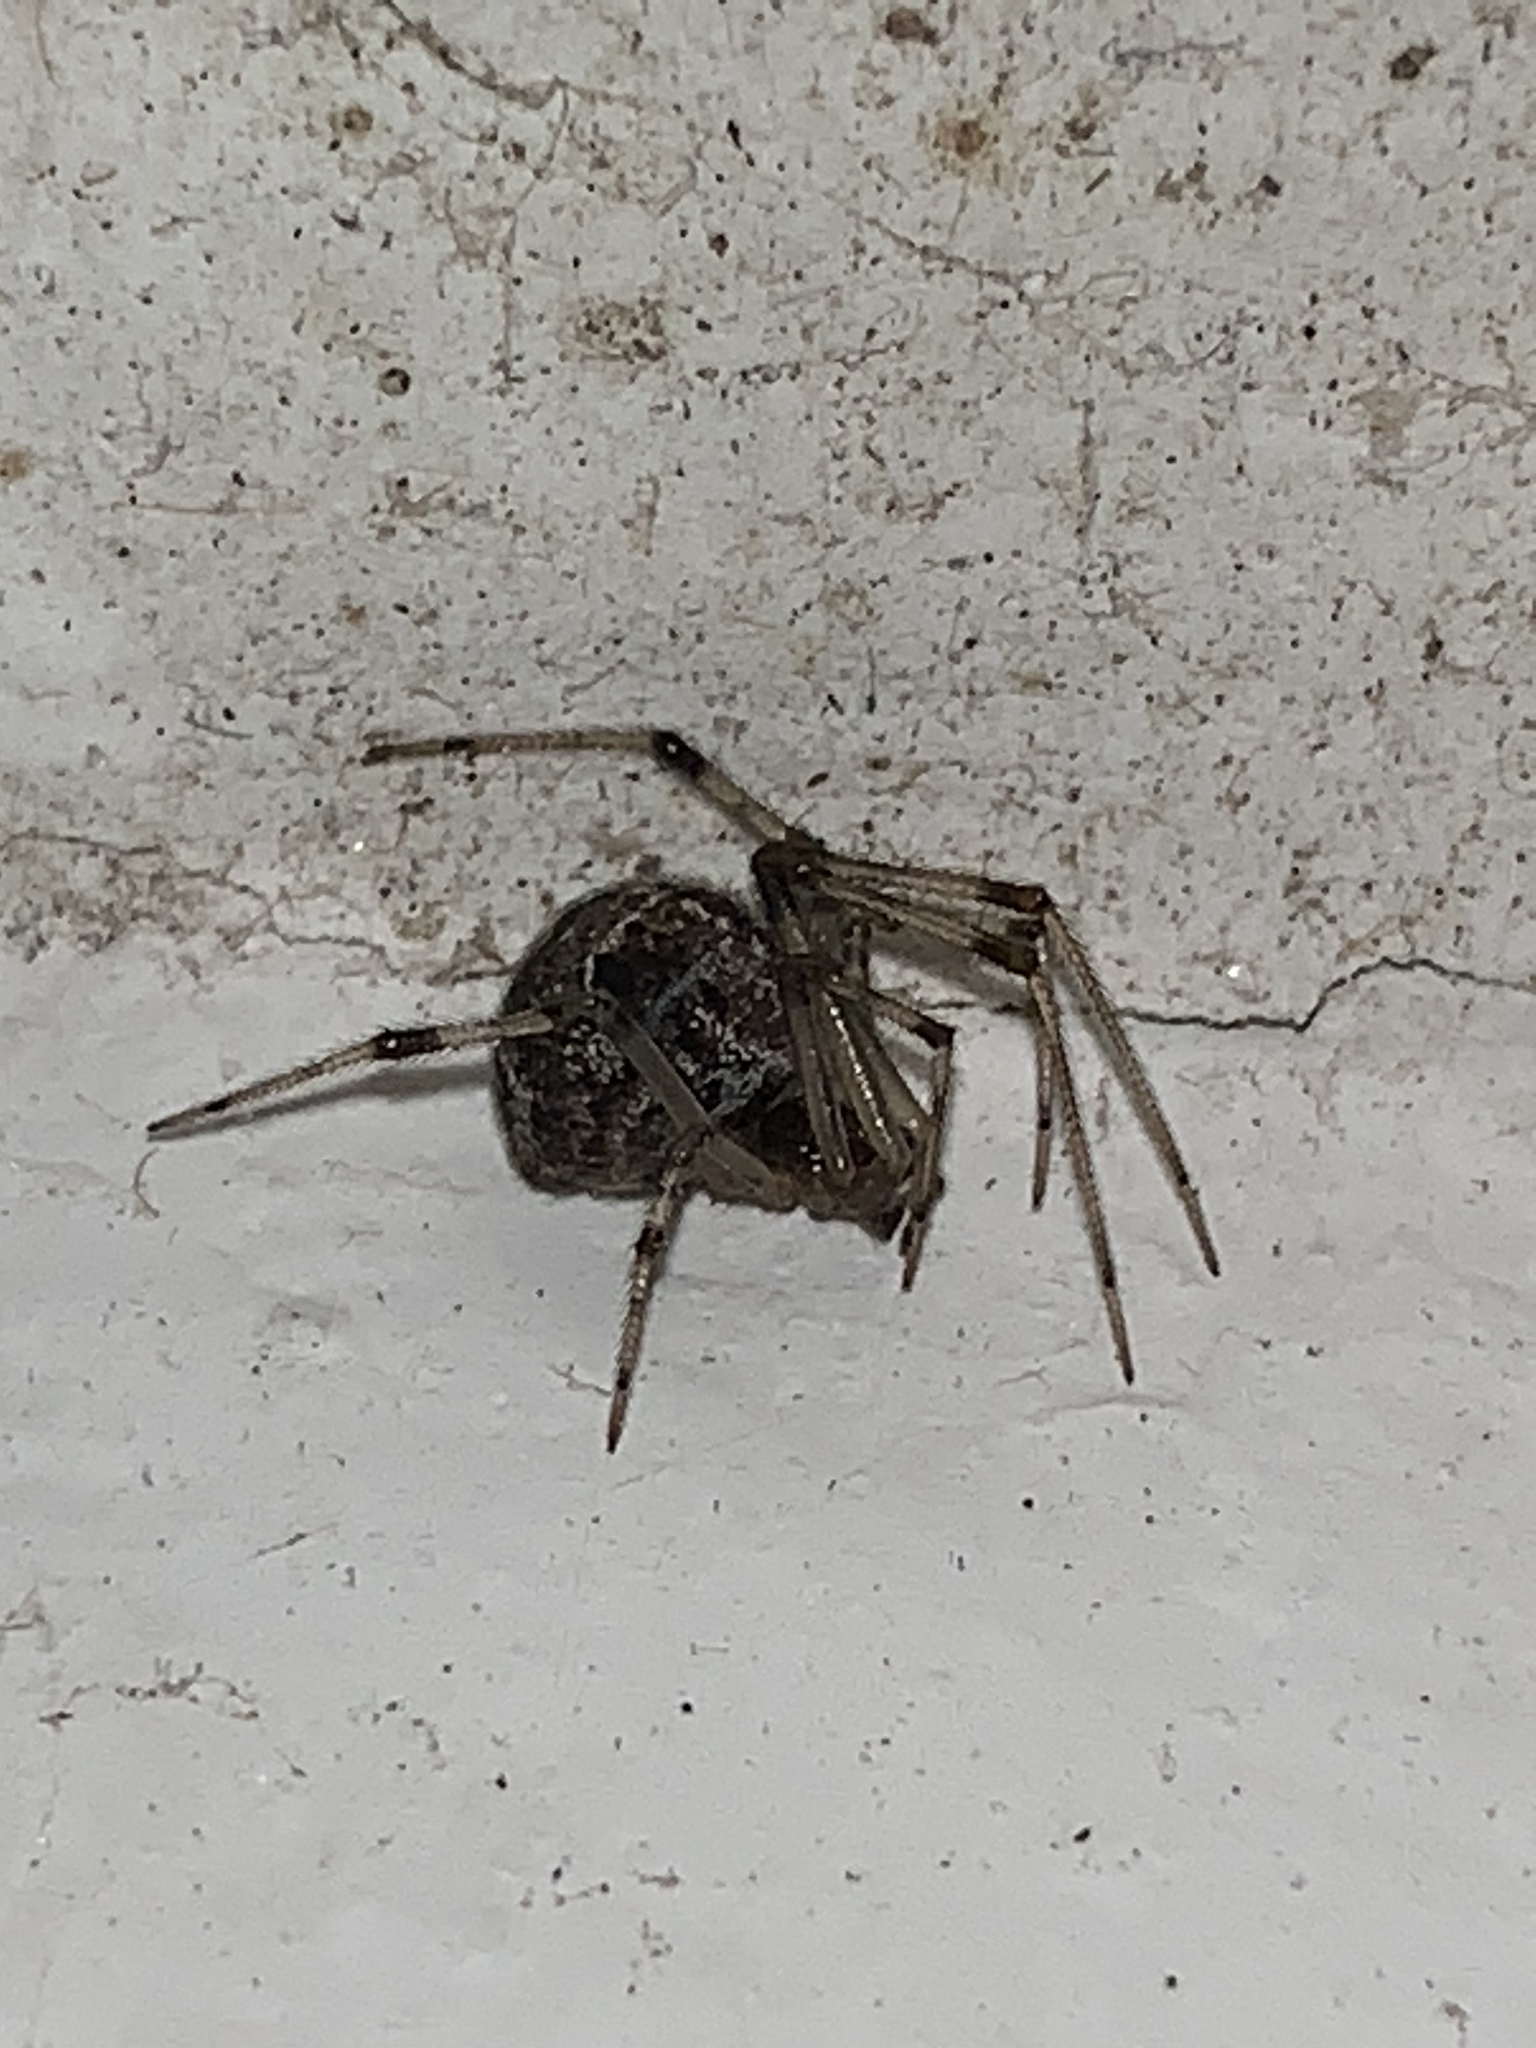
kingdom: Animalia
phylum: Arthropoda
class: Arachnida
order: Araneae
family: Theridiidae
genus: Parasteatoda
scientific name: Parasteatoda tepidariorum
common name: Common house spider
